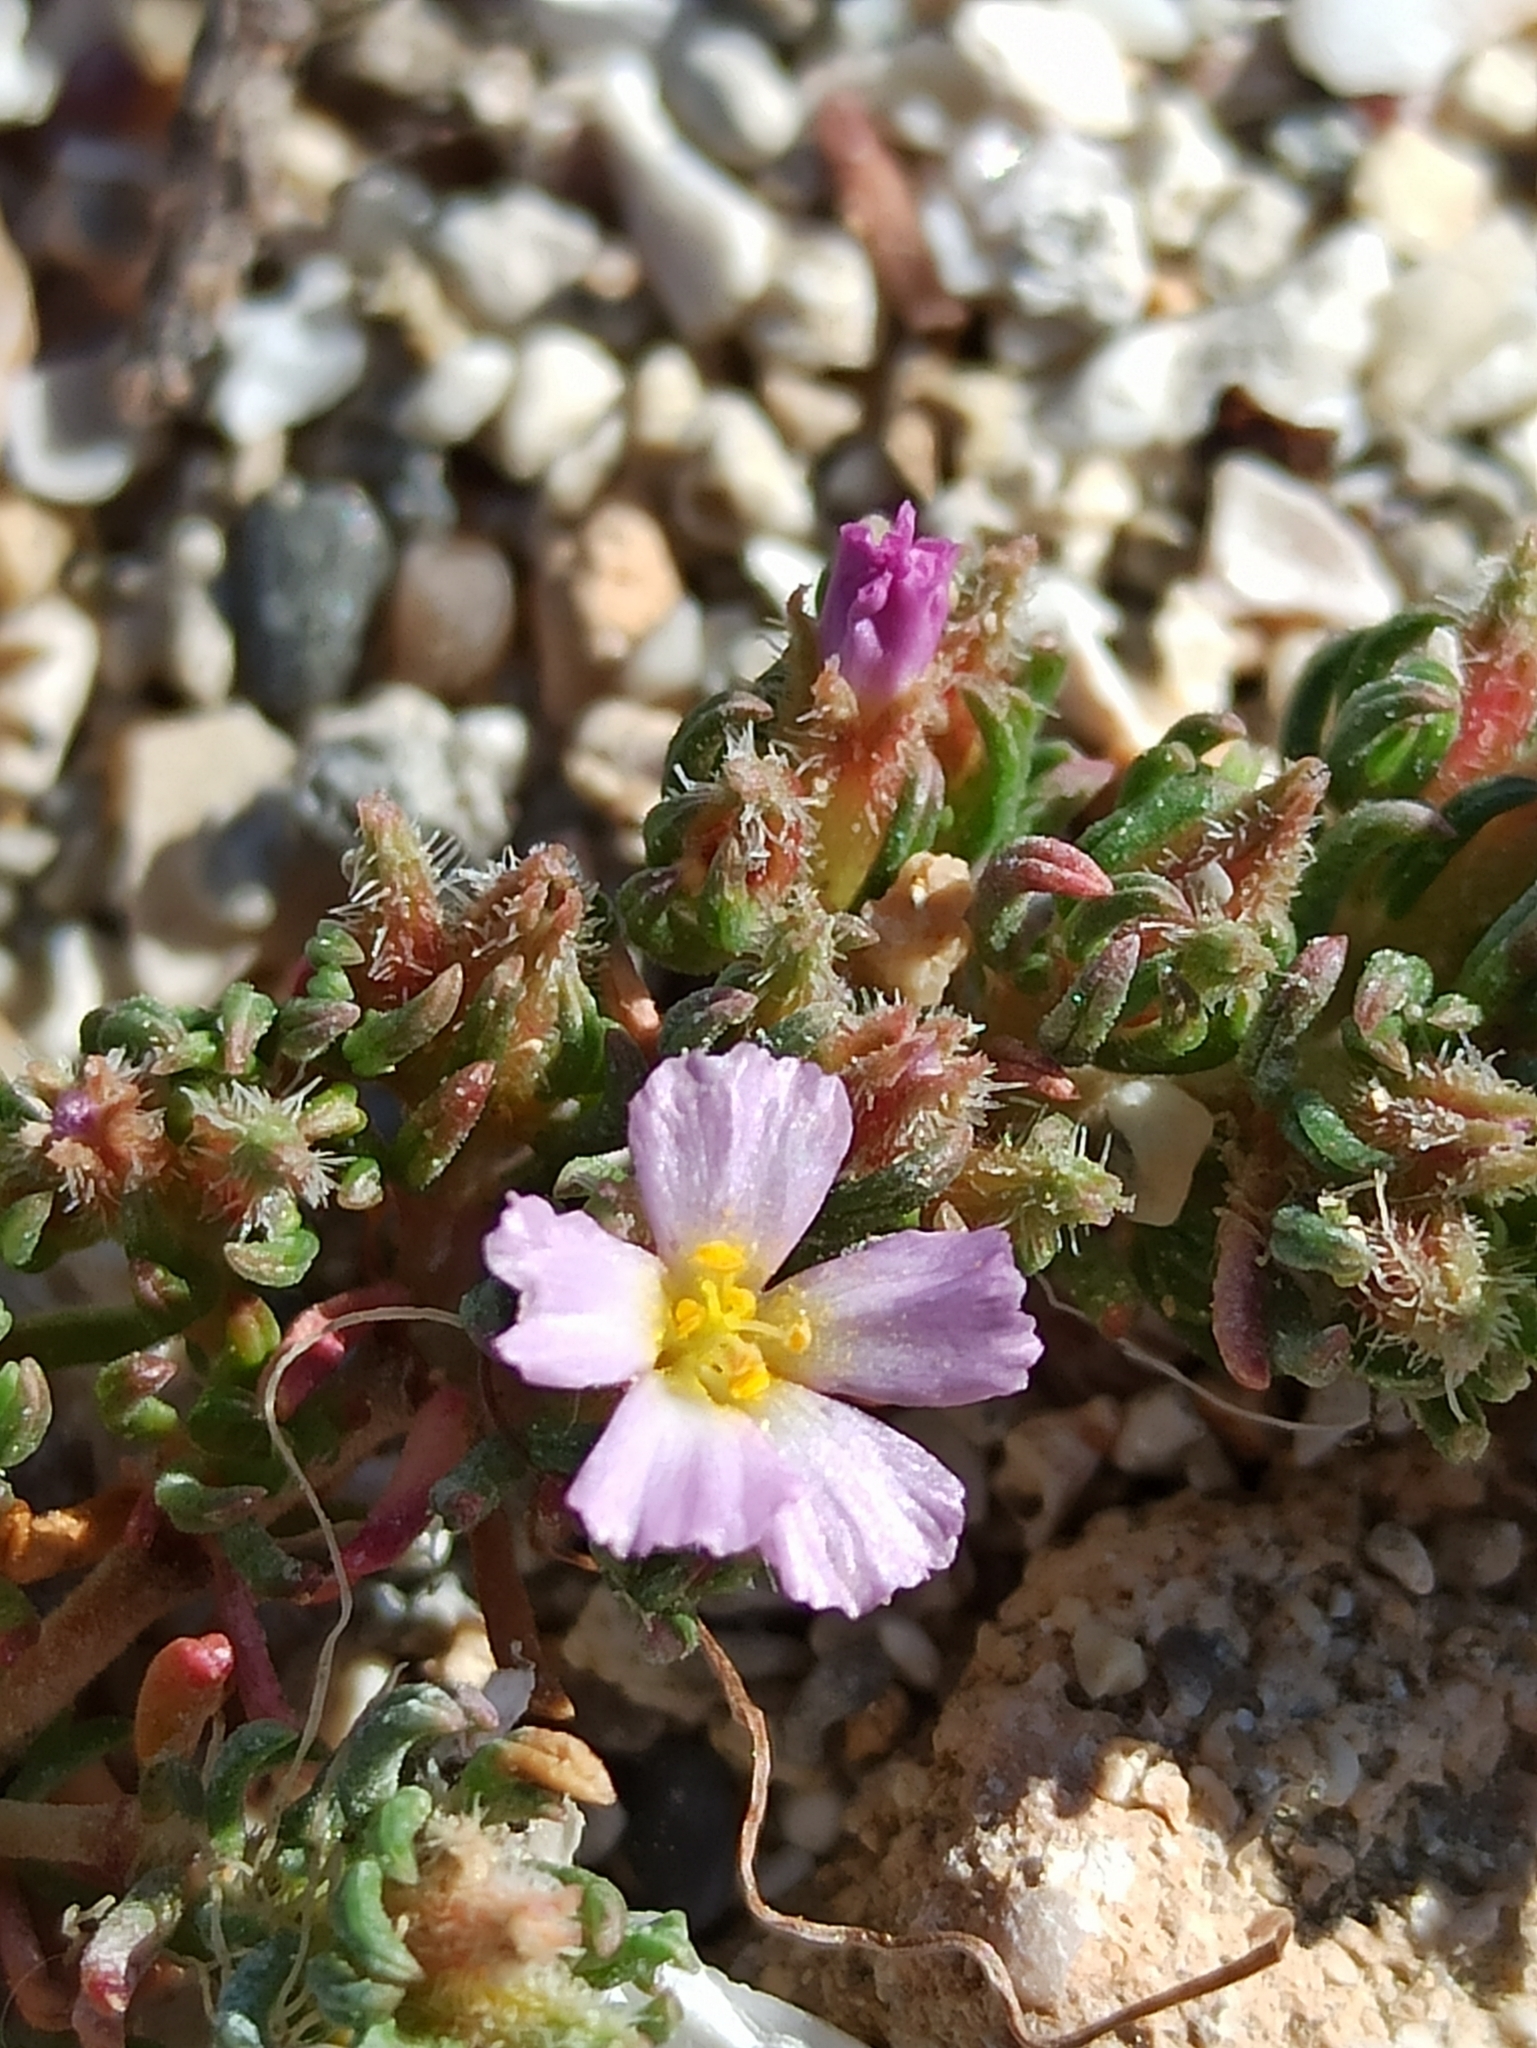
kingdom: Plantae
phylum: Tracheophyta
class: Magnoliopsida
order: Caryophyllales
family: Frankeniaceae
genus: Frankenia
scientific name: Frankenia hirsuta
